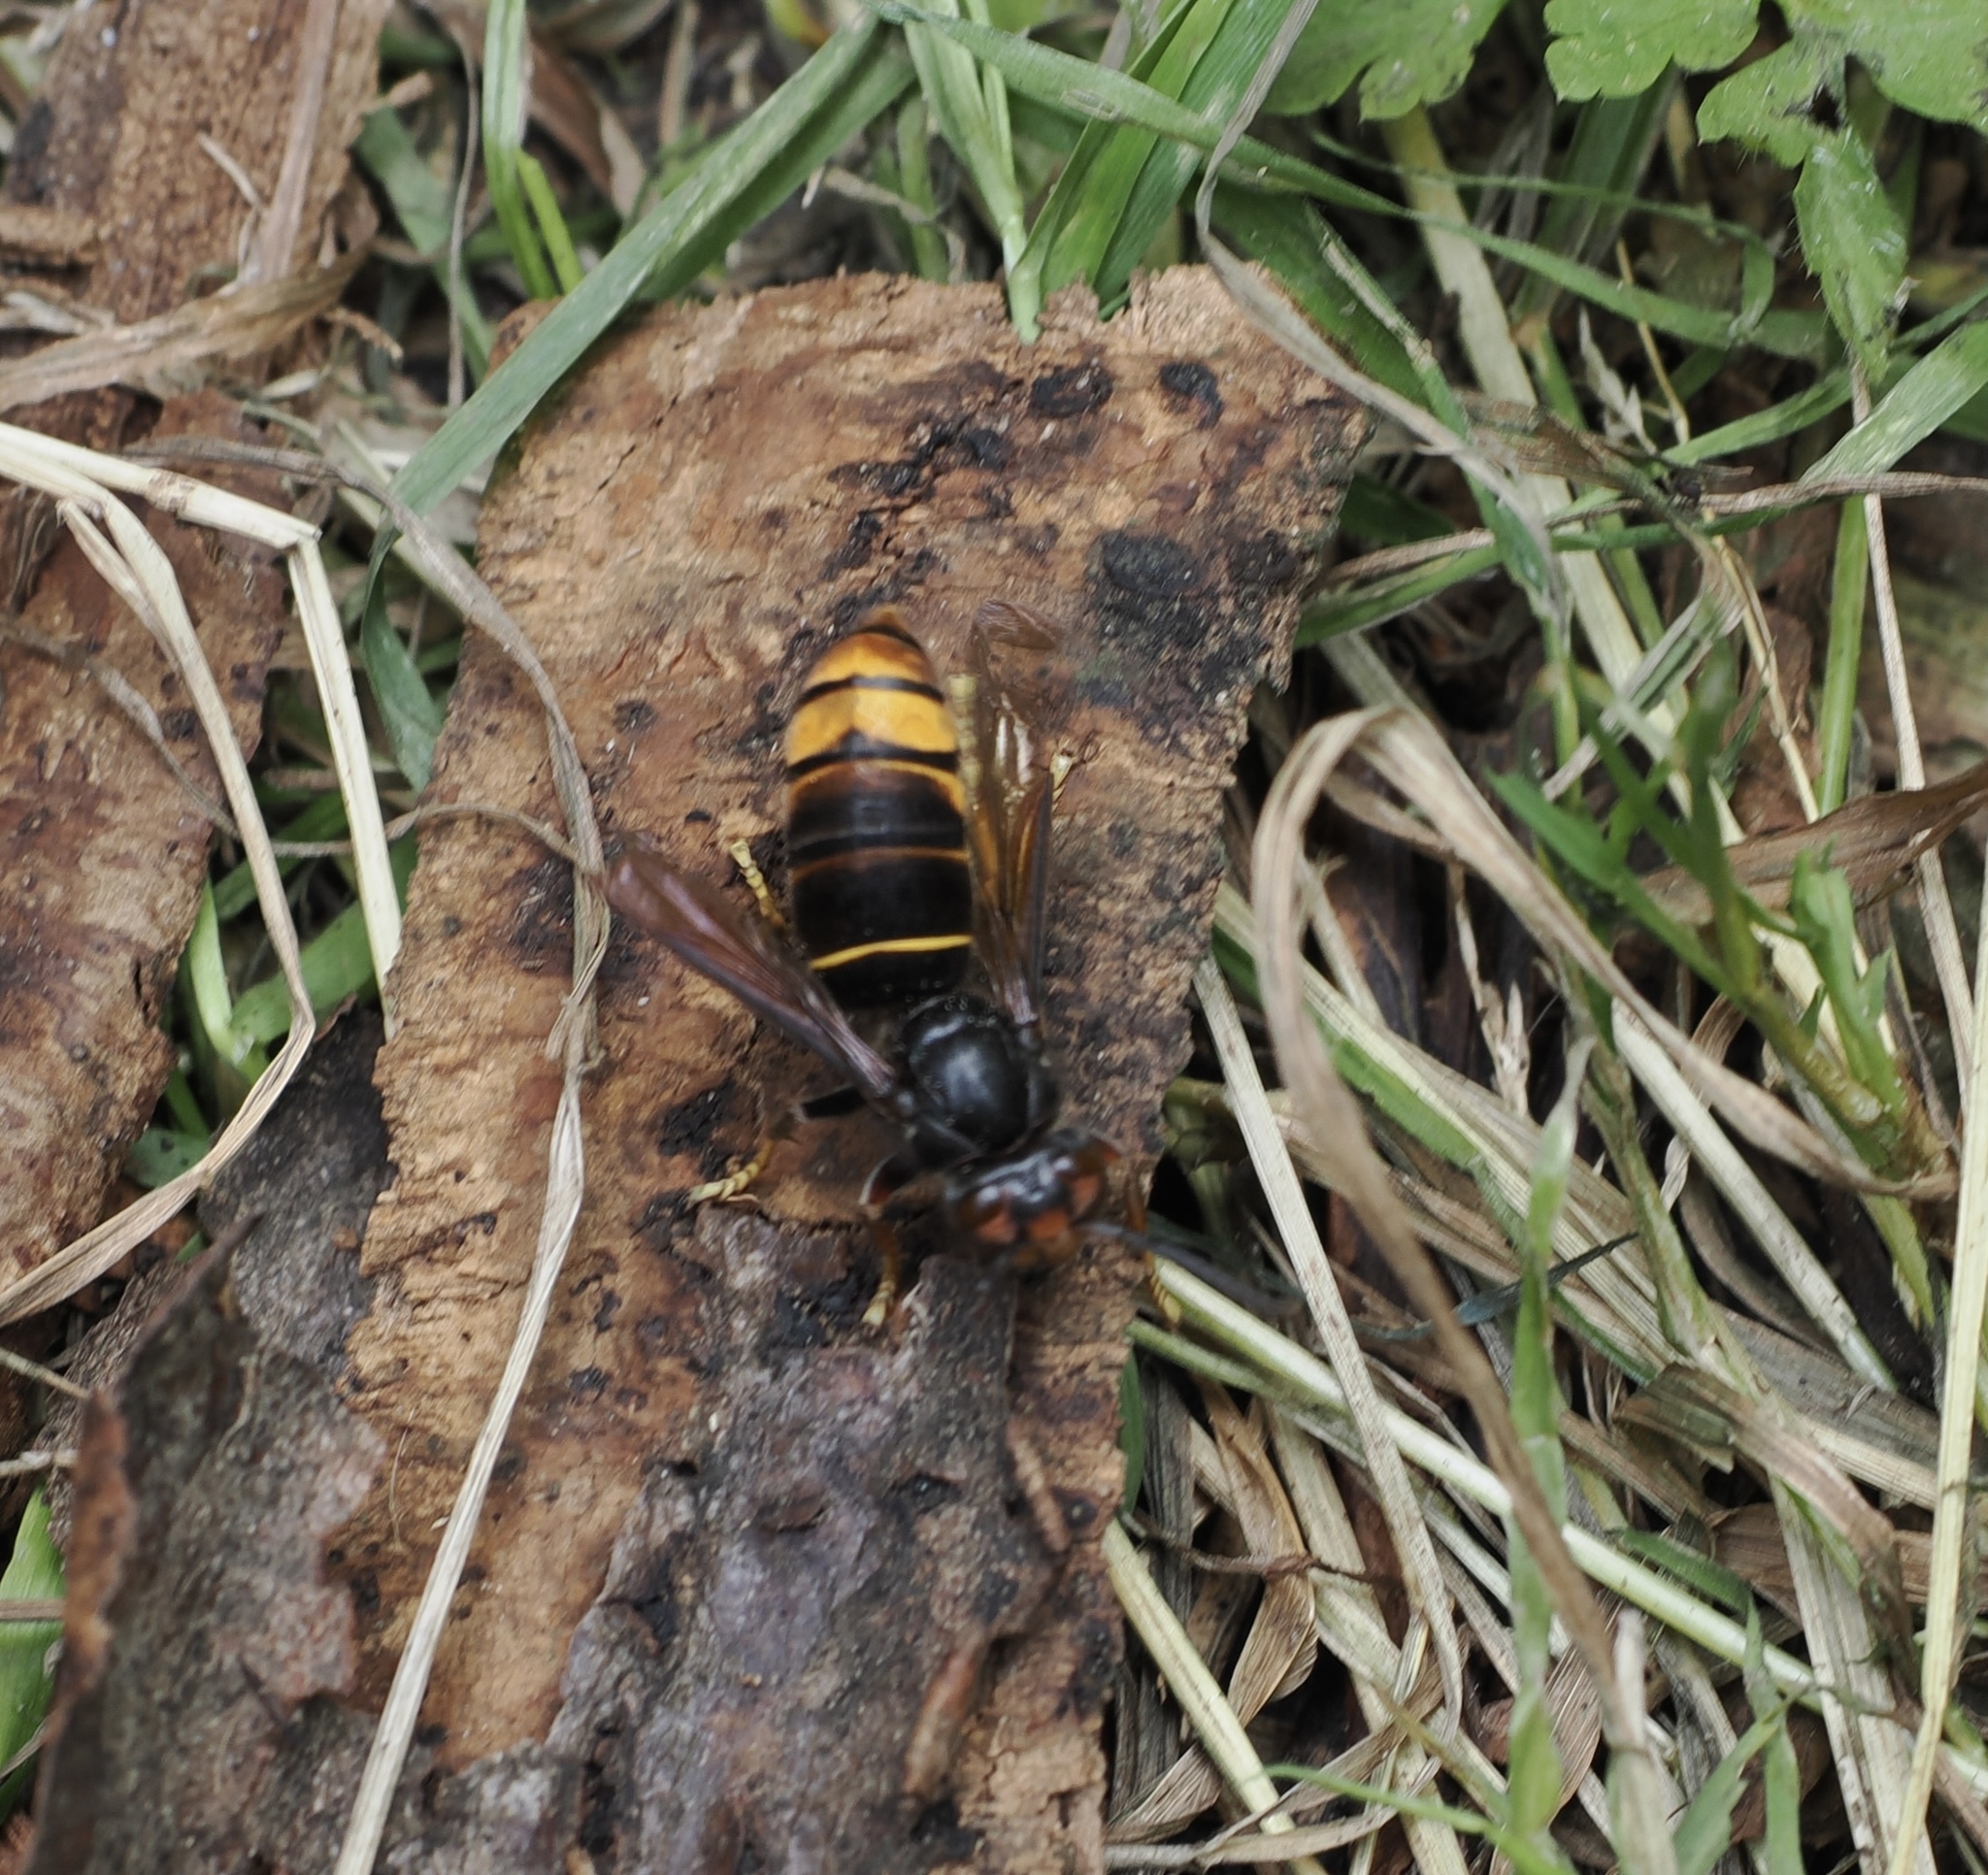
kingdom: Animalia
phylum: Arthropoda
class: Insecta
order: Hymenoptera
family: Vespidae
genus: Vespa
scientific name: Vespa velutina
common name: Asian hornet
